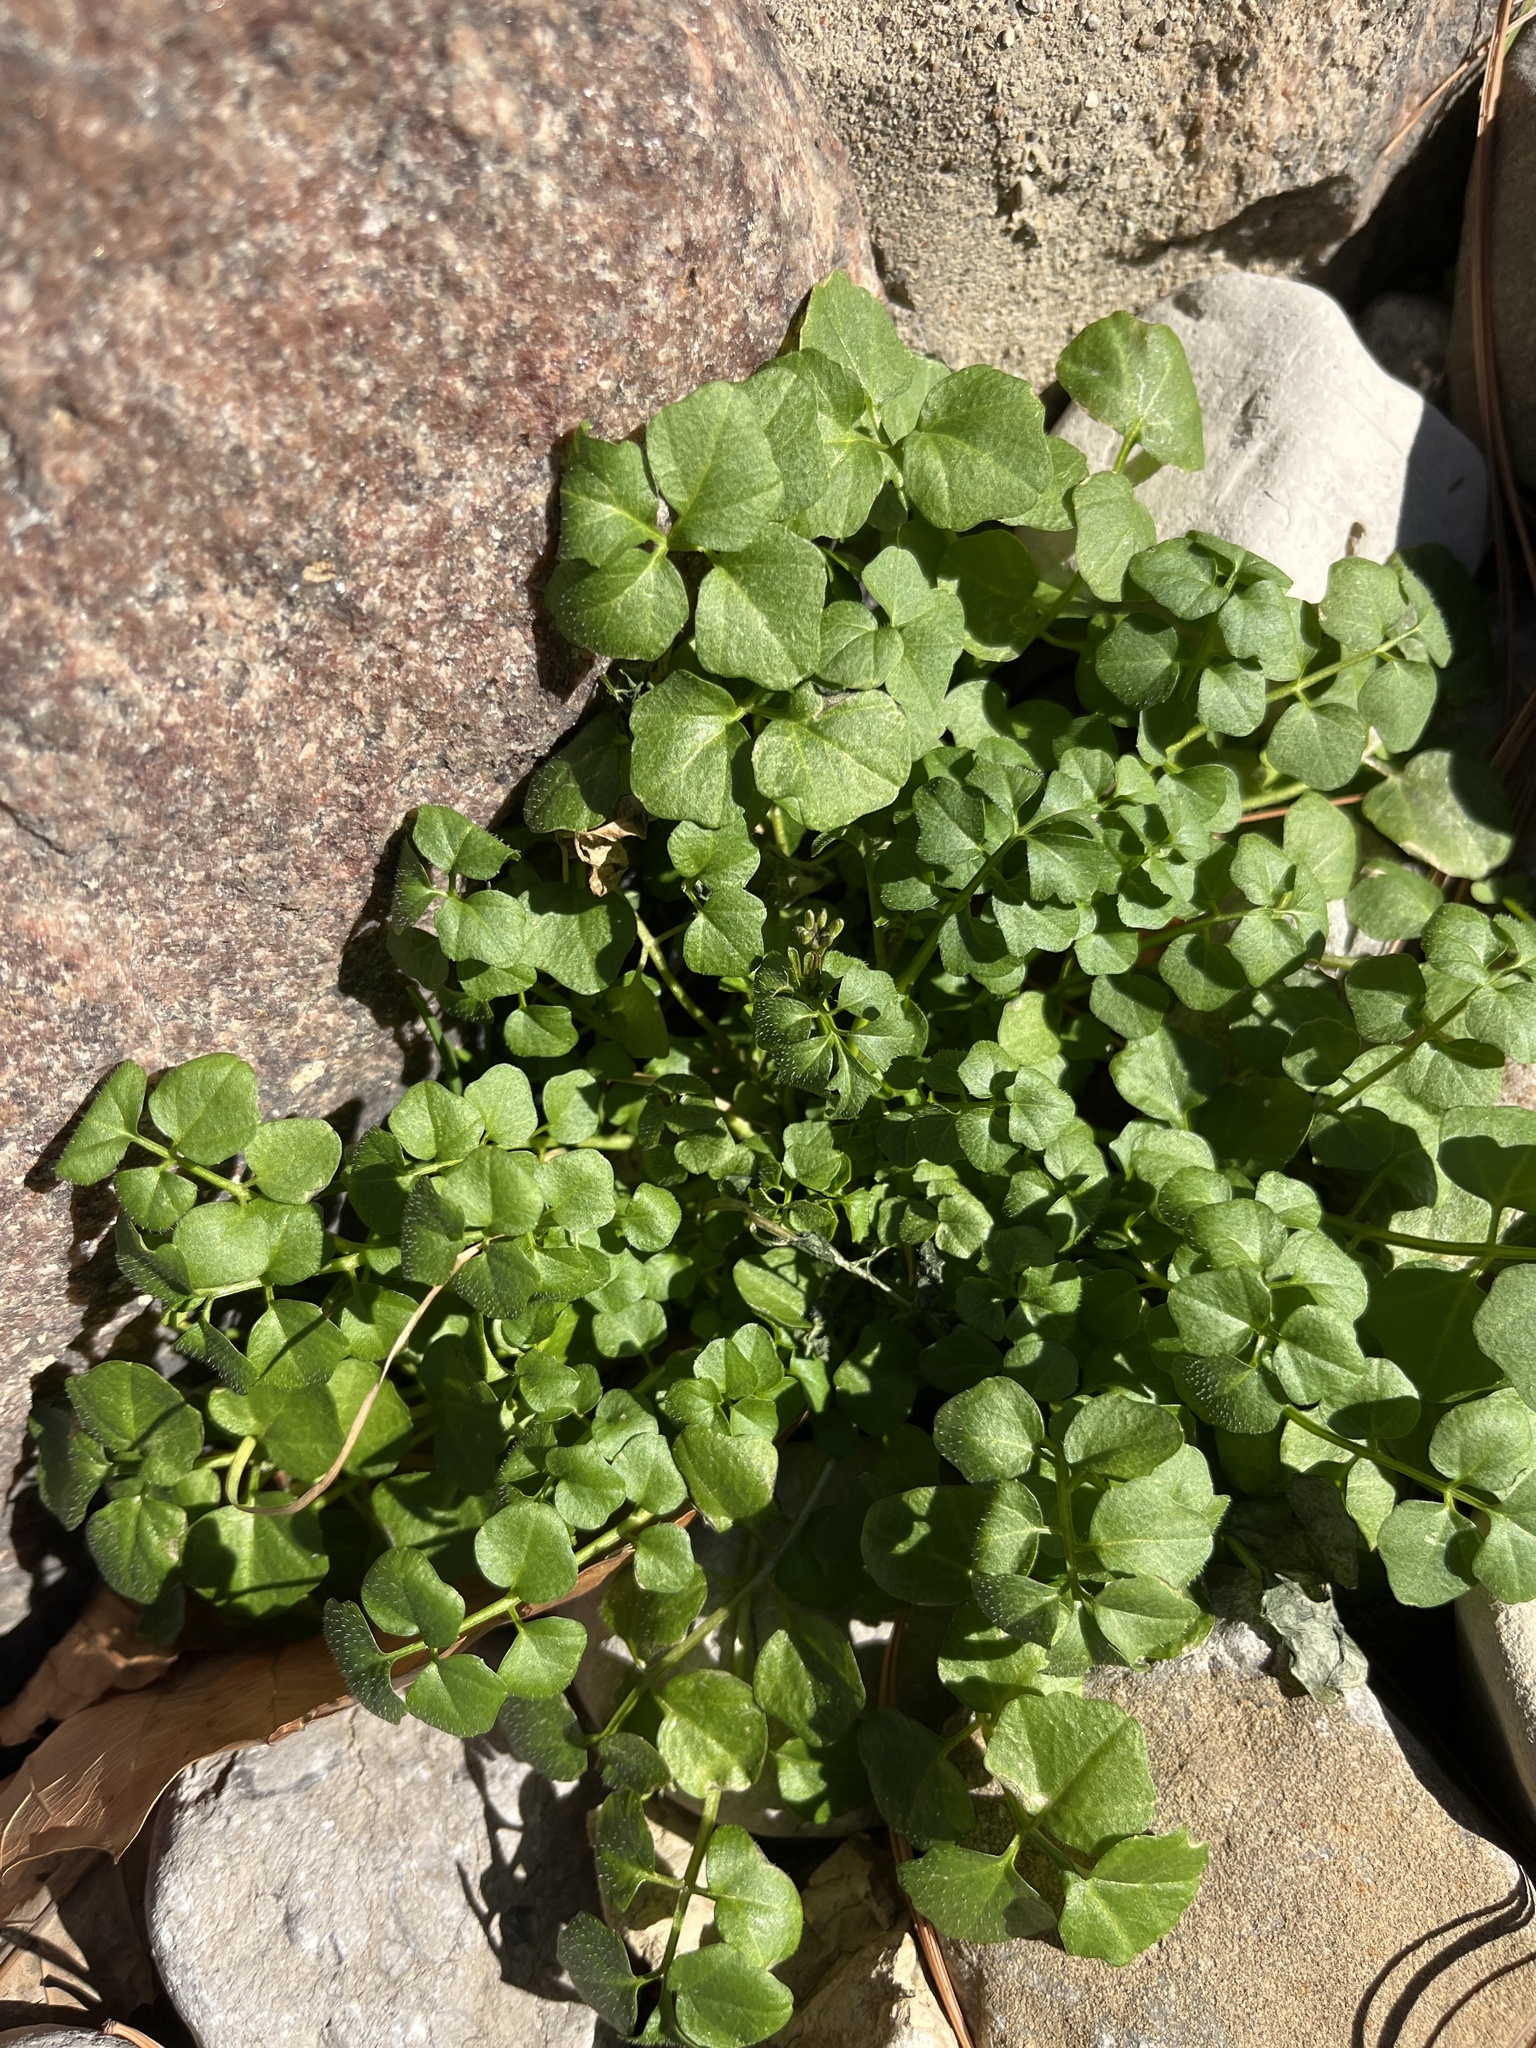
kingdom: Plantae
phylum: Tracheophyta
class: Magnoliopsida
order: Brassicales
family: Brassicaceae
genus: Cardamine
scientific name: Cardamine hirsuta
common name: Hairy bittercress
